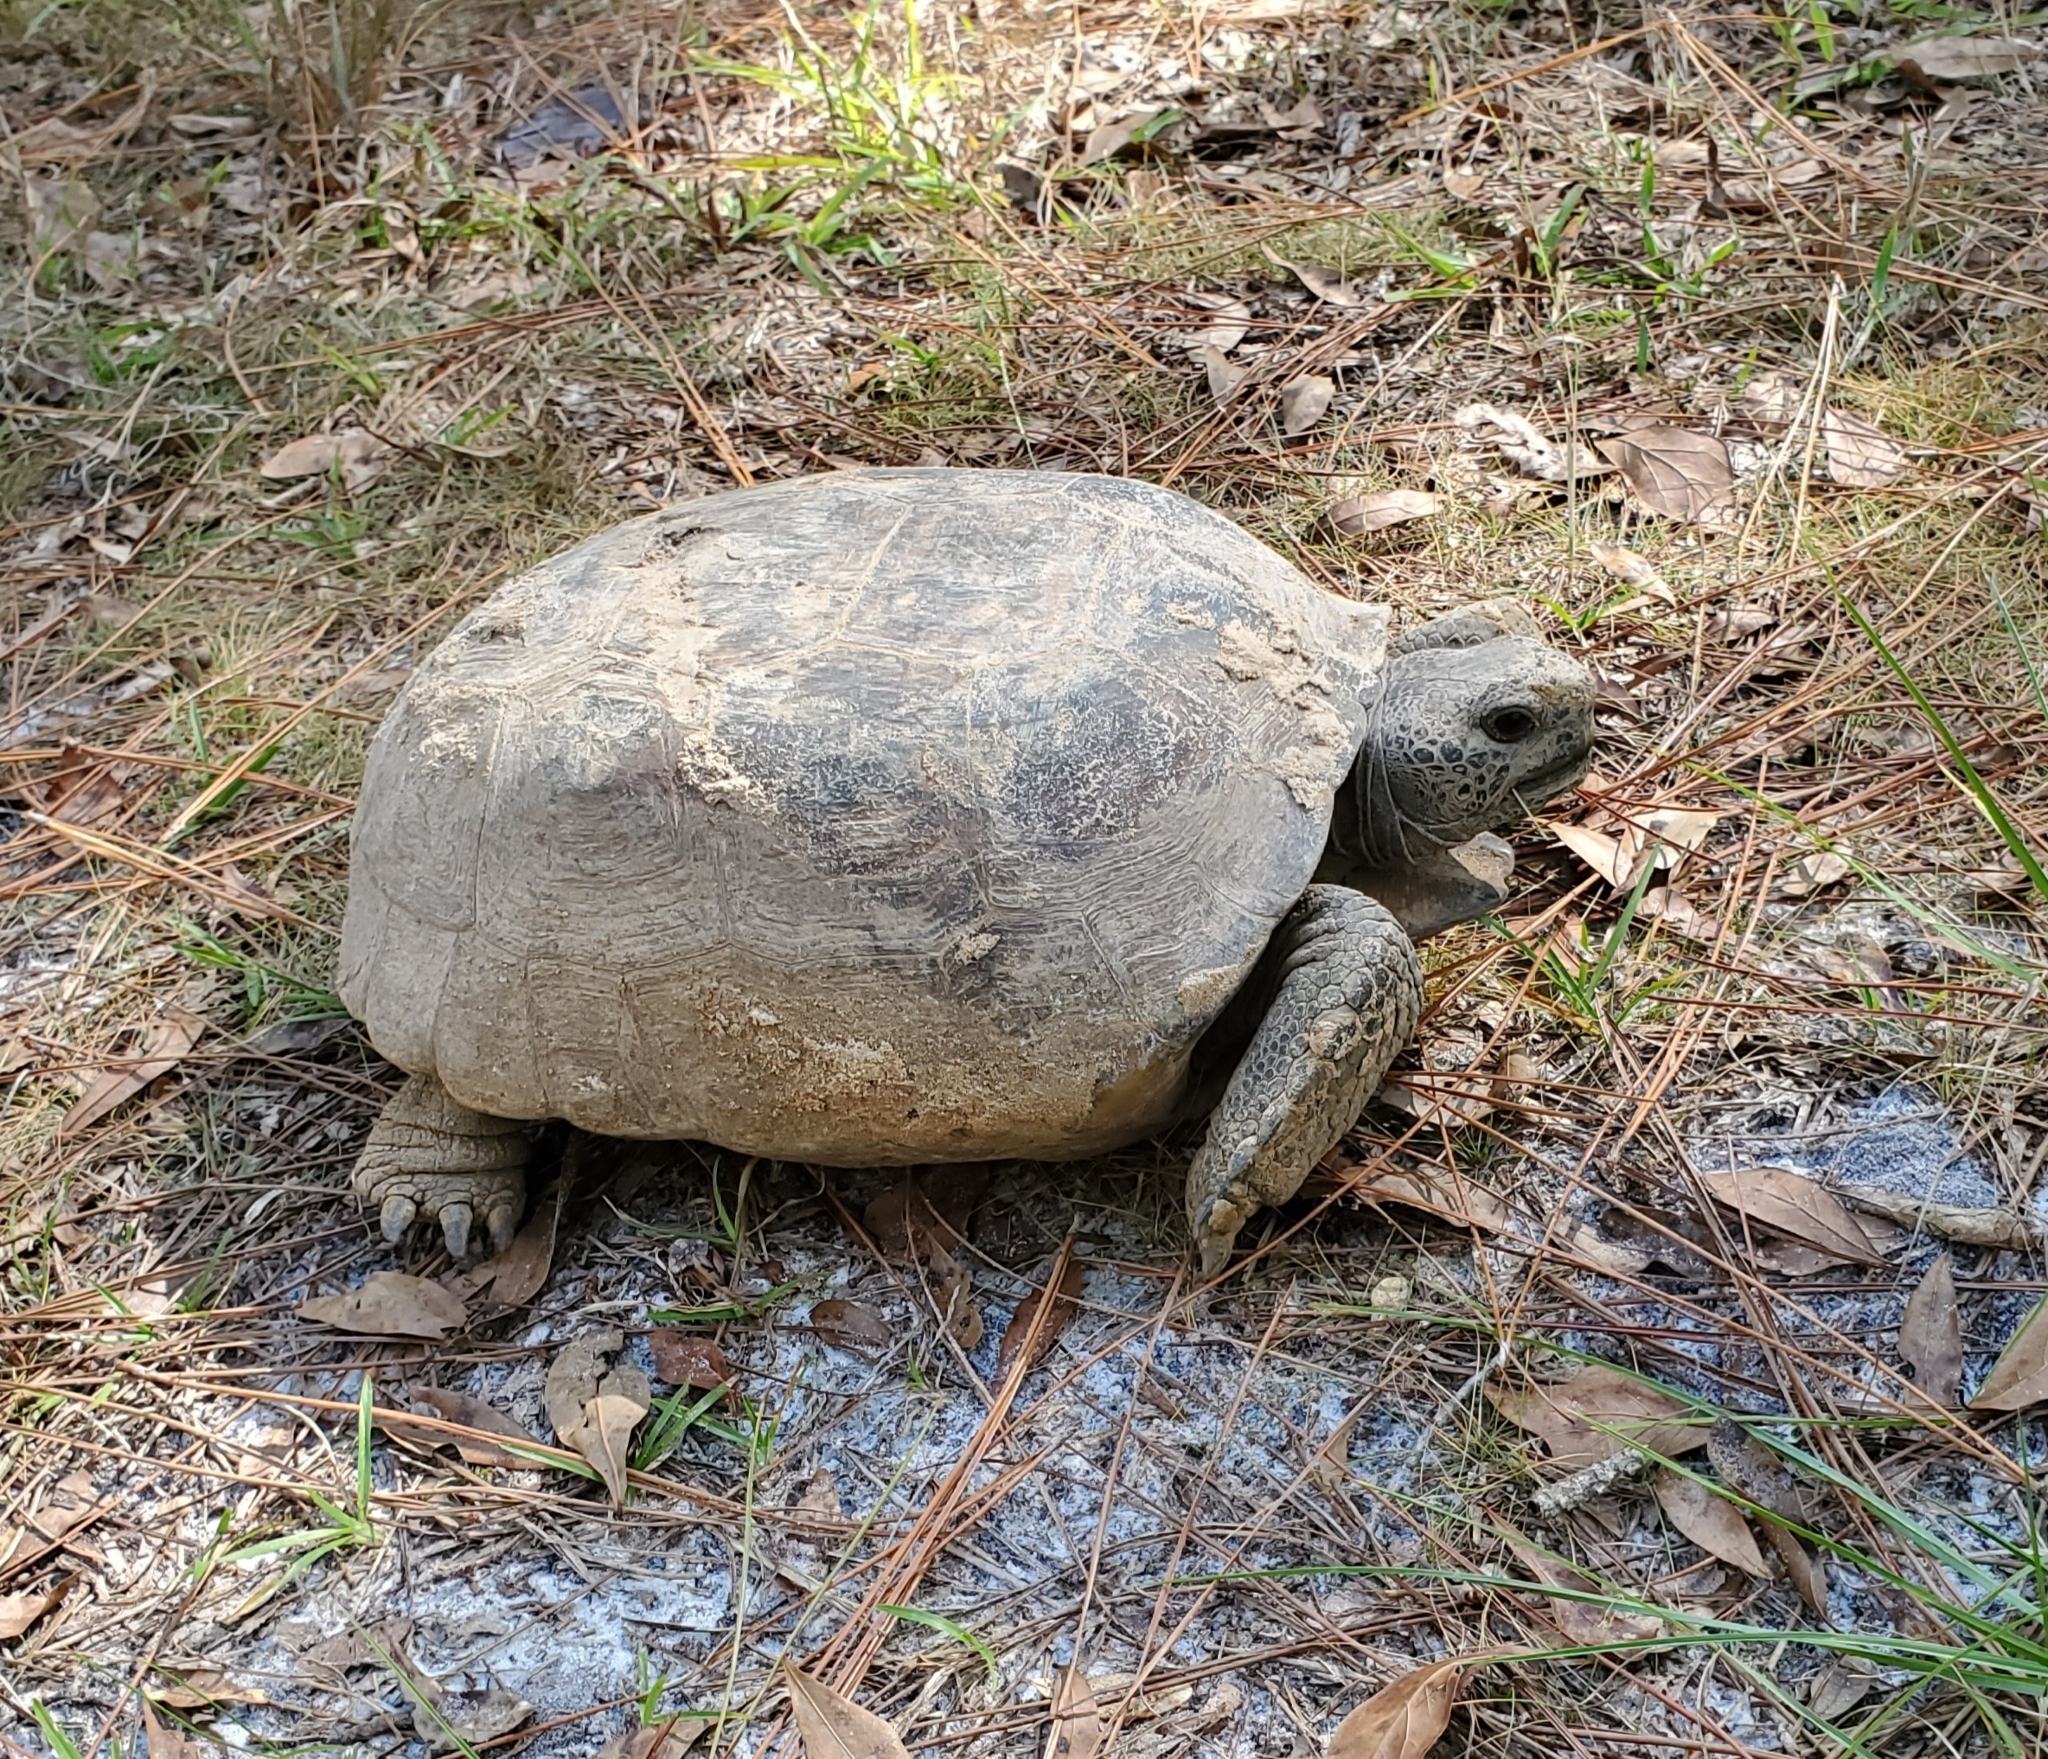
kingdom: Animalia
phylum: Chordata
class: Testudines
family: Testudinidae
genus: Gopherus
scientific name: Gopherus polyphemus
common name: Florida gopher tortoise
